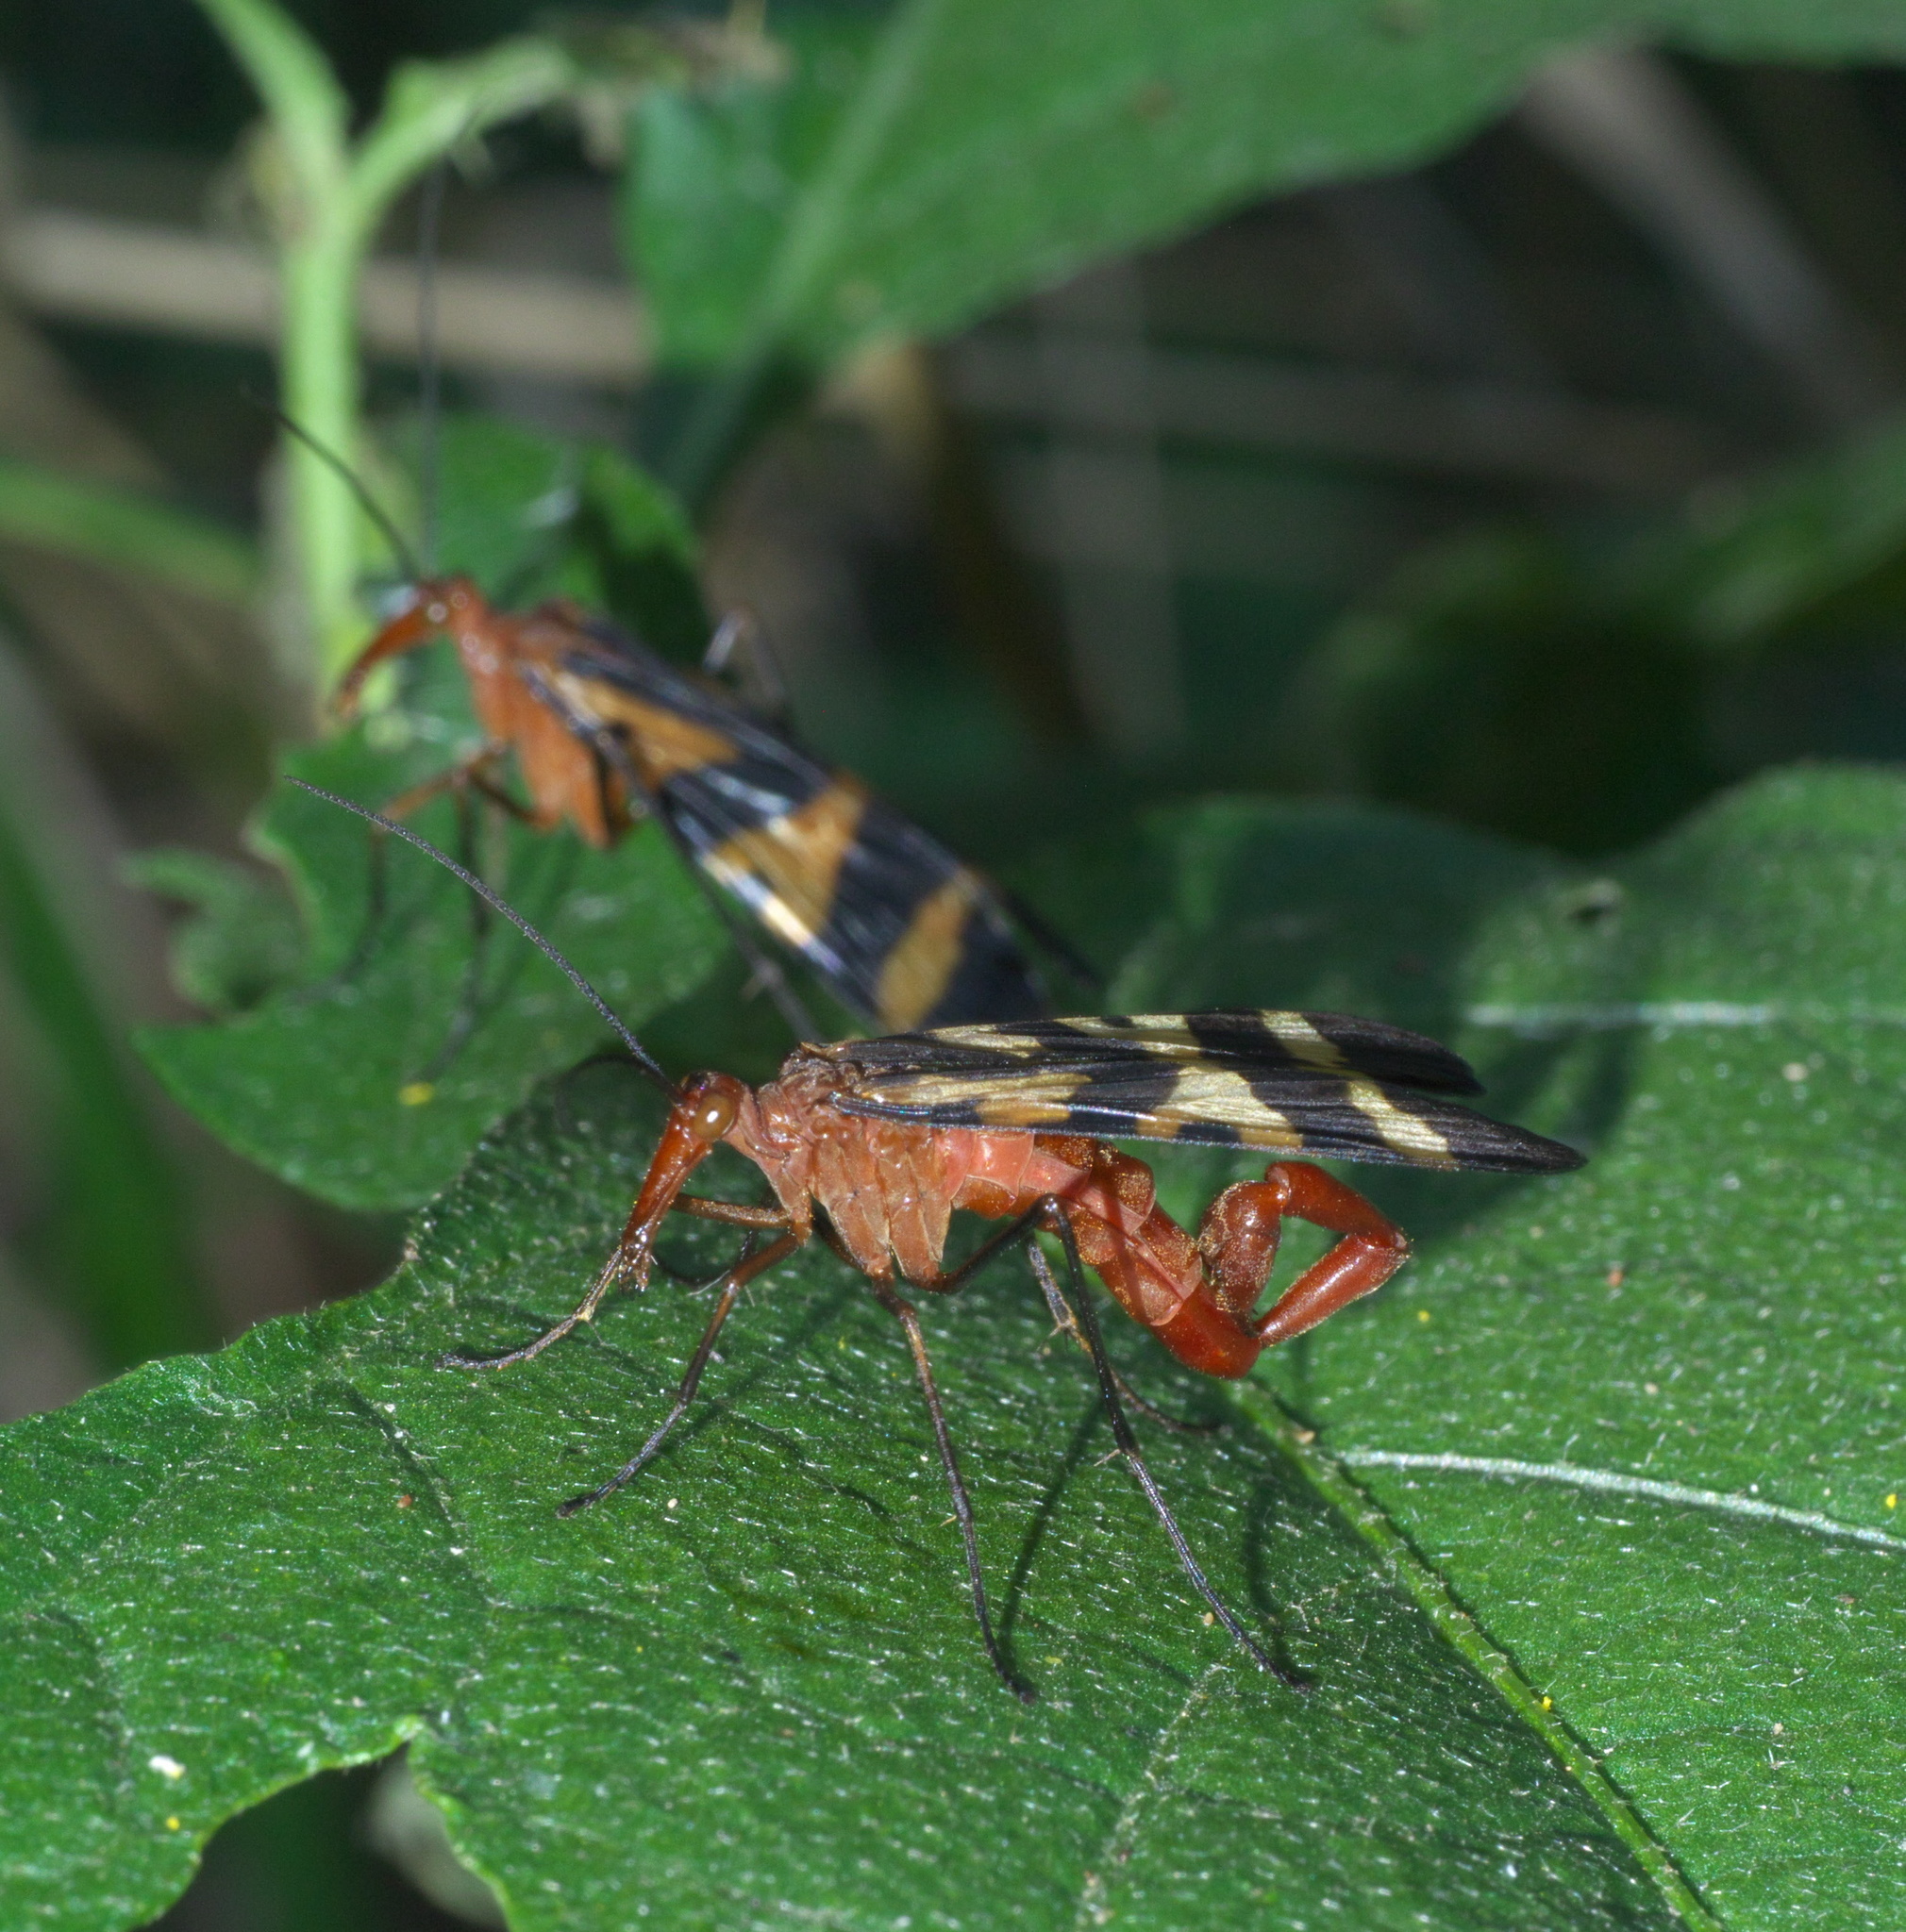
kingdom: Animalia
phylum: Arthropoda
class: Insecta
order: Mecoptera
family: Panorpidae
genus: Panorpa
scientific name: Panorpa nuptialis
